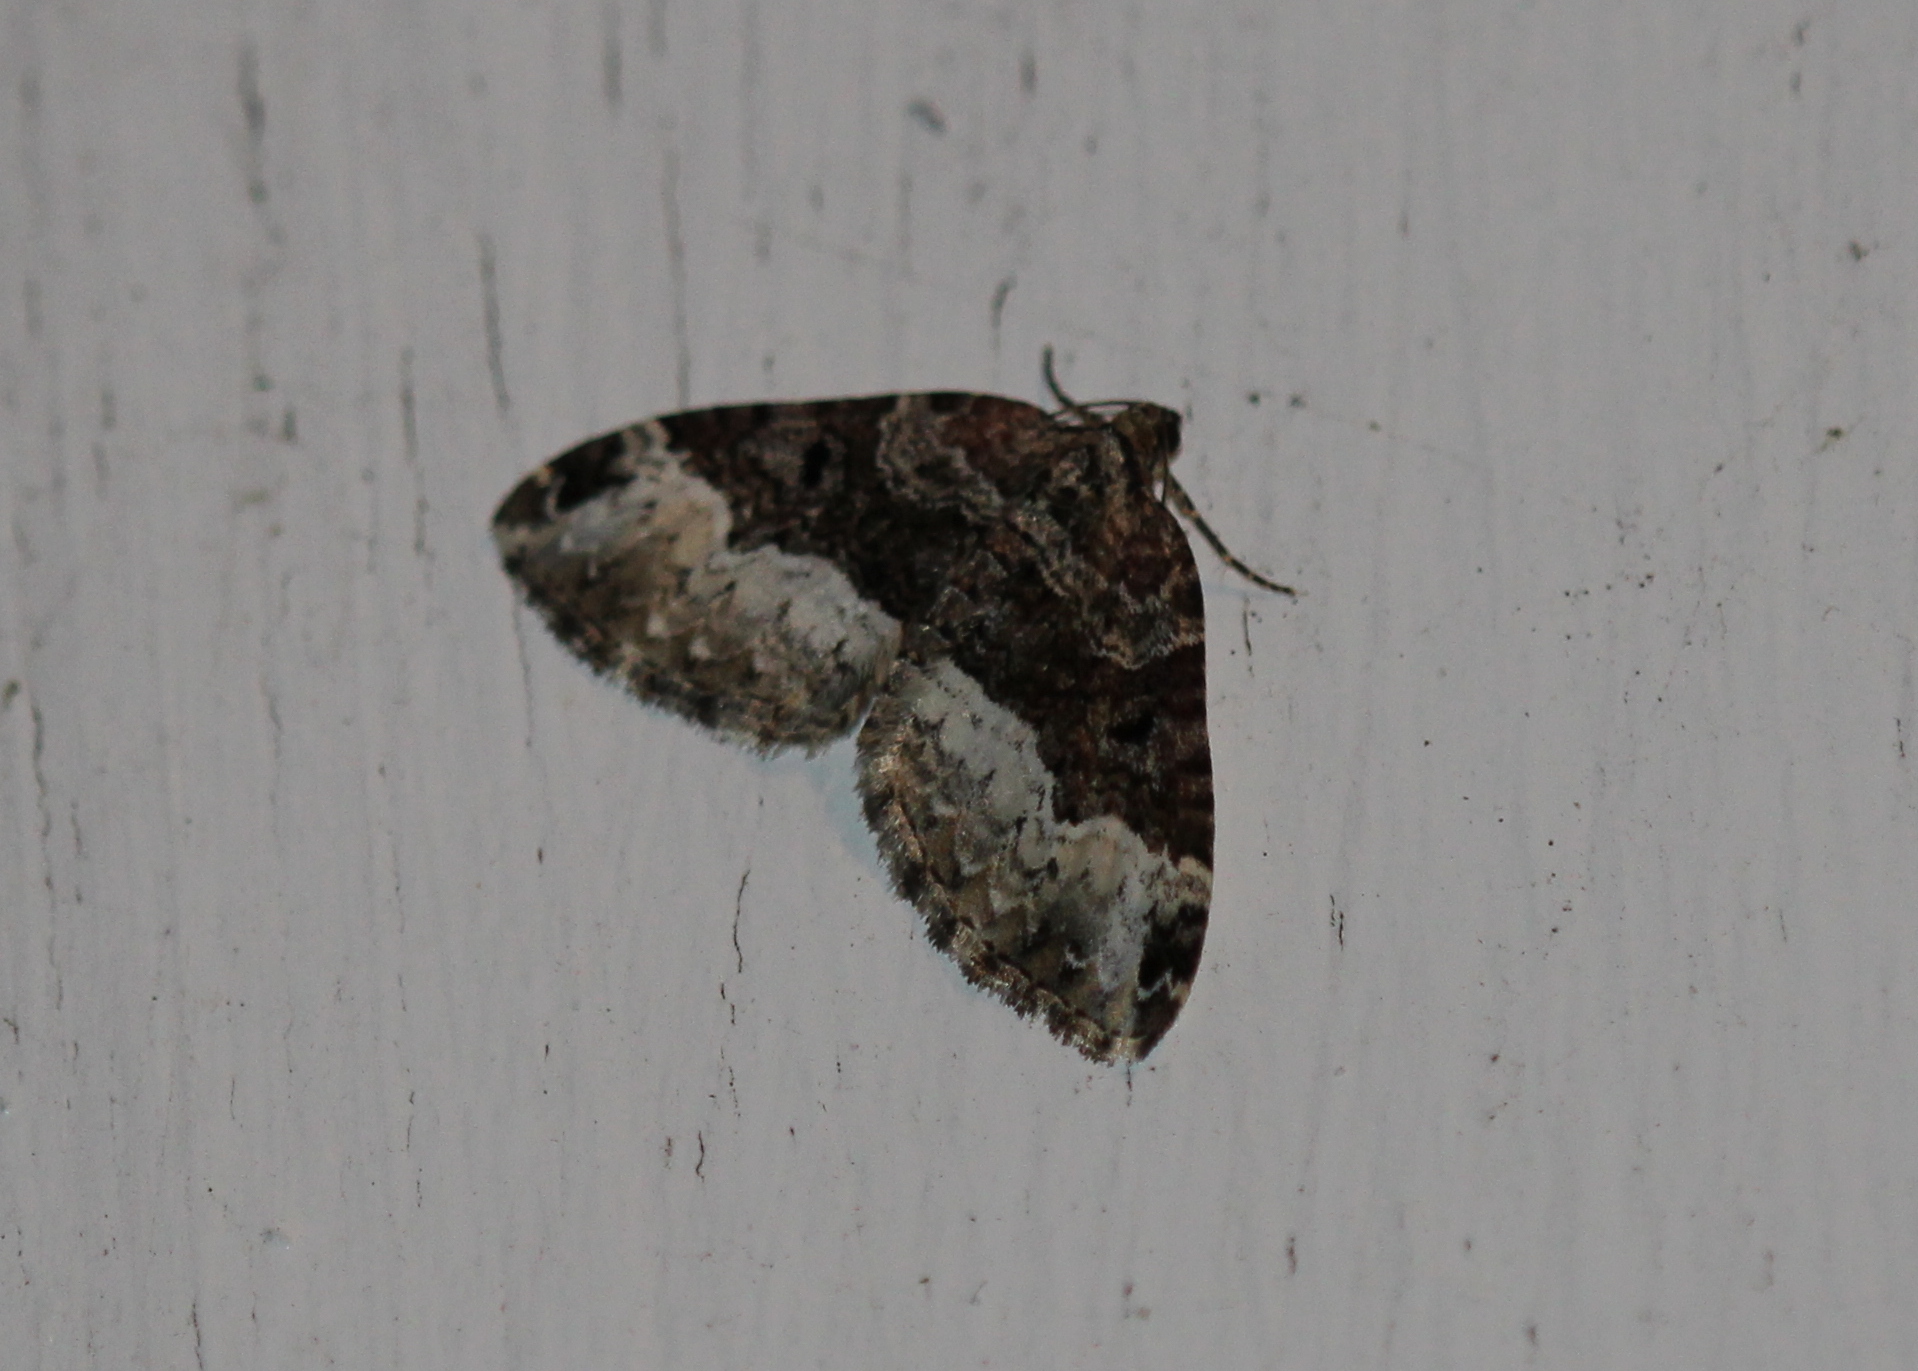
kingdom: Animalia
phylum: Arthropoda
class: Insecta
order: Lepidoptera
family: Geometridae
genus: Euphyia
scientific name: Euphyia intermediata
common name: Sharp-angled carpet
